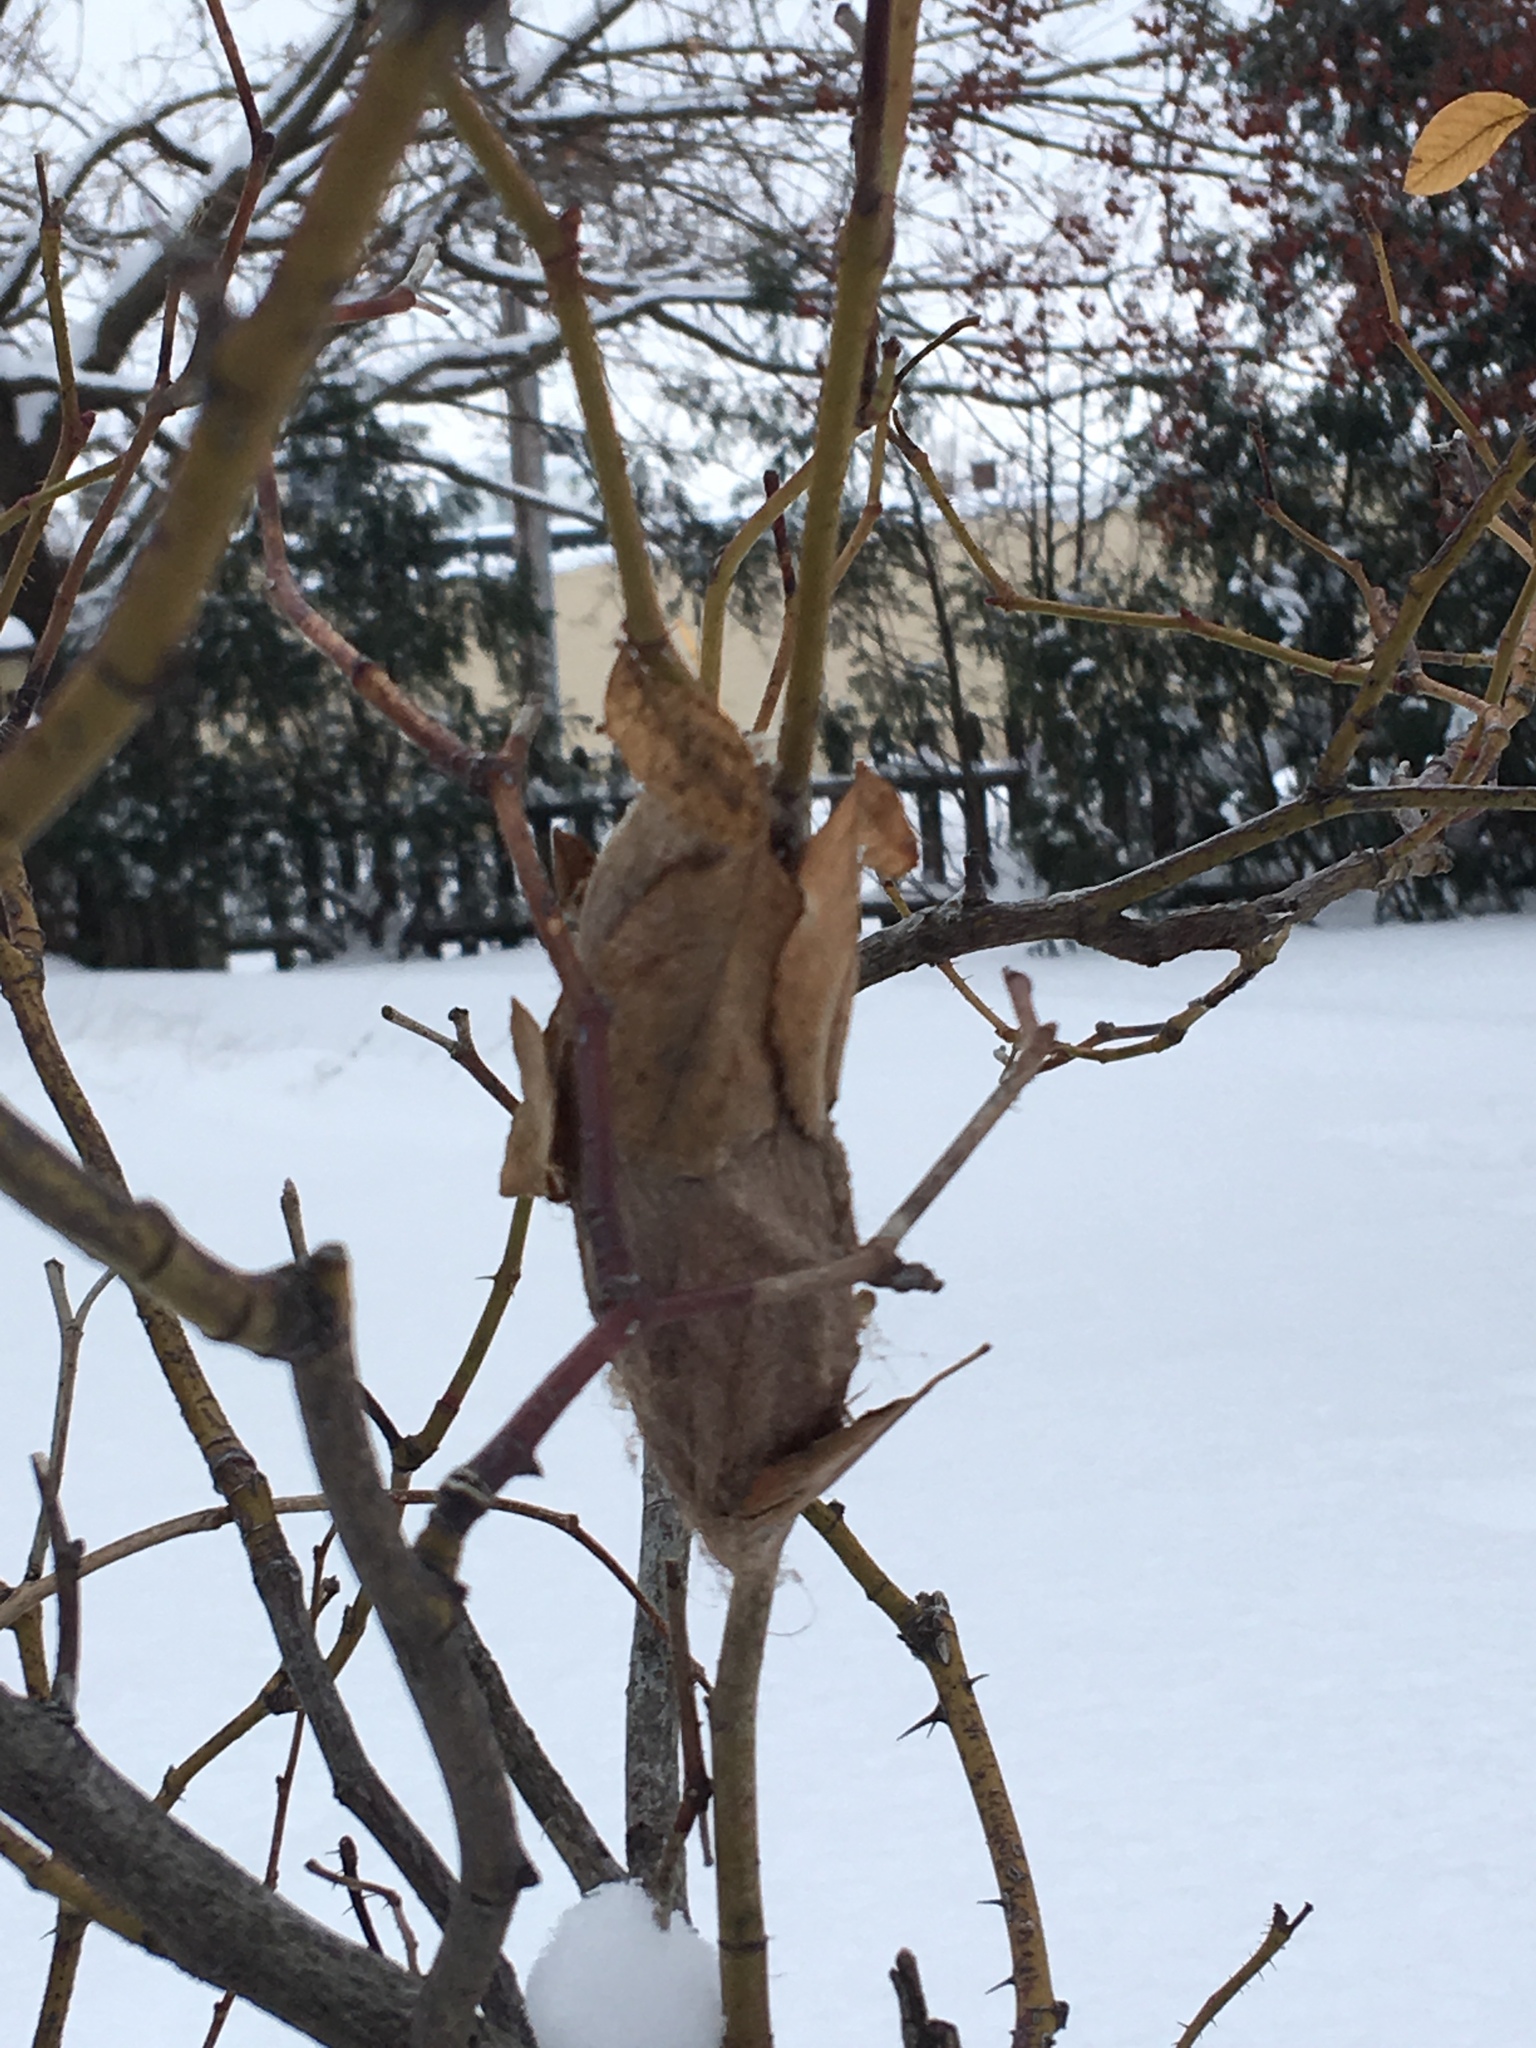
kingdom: Animalia
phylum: Arthropoda
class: Insecta
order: Lepidoptera
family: Saturniidae
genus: Hyalophora
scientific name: Hyalophora cecropia
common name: Cecropia silkmoth
